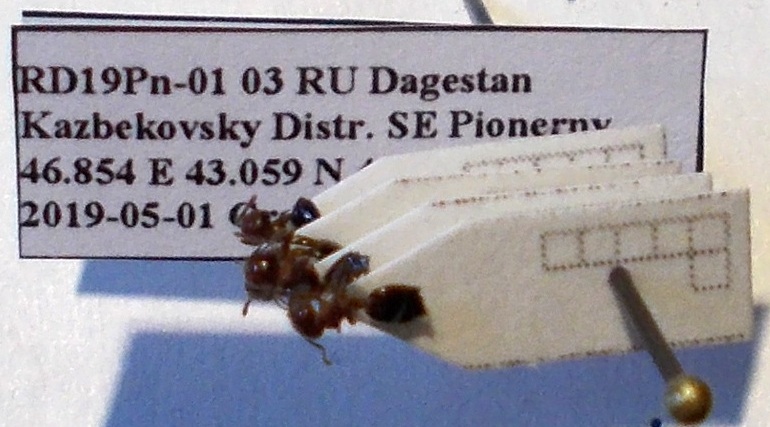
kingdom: Animalia
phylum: Arthropoda
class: Insecta
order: Hymenoptera
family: Formicidae
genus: Crematogaster
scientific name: Crematogaster schmidti
